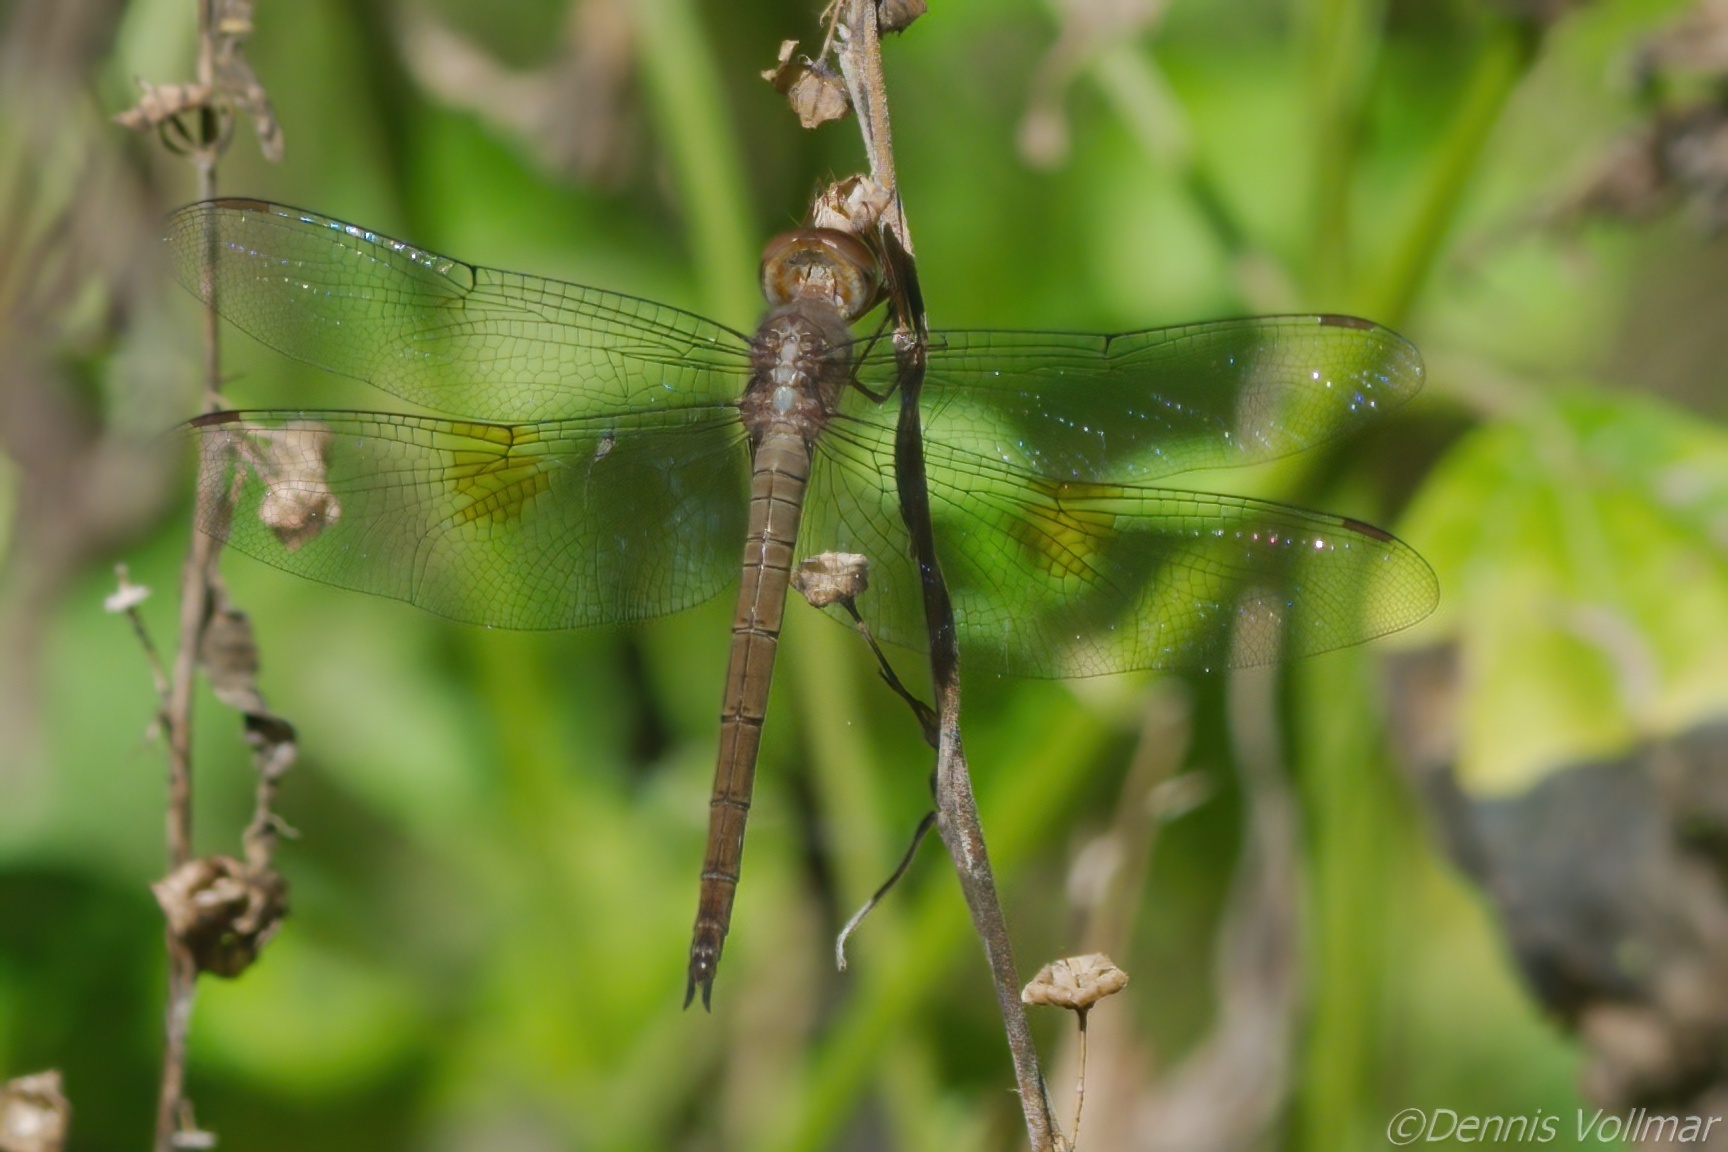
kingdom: Animalia
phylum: Arthropoda
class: Insecta
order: Odonata
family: Libellulidae
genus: Tholymis
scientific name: Tholymis citrina
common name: Evening skimmer
